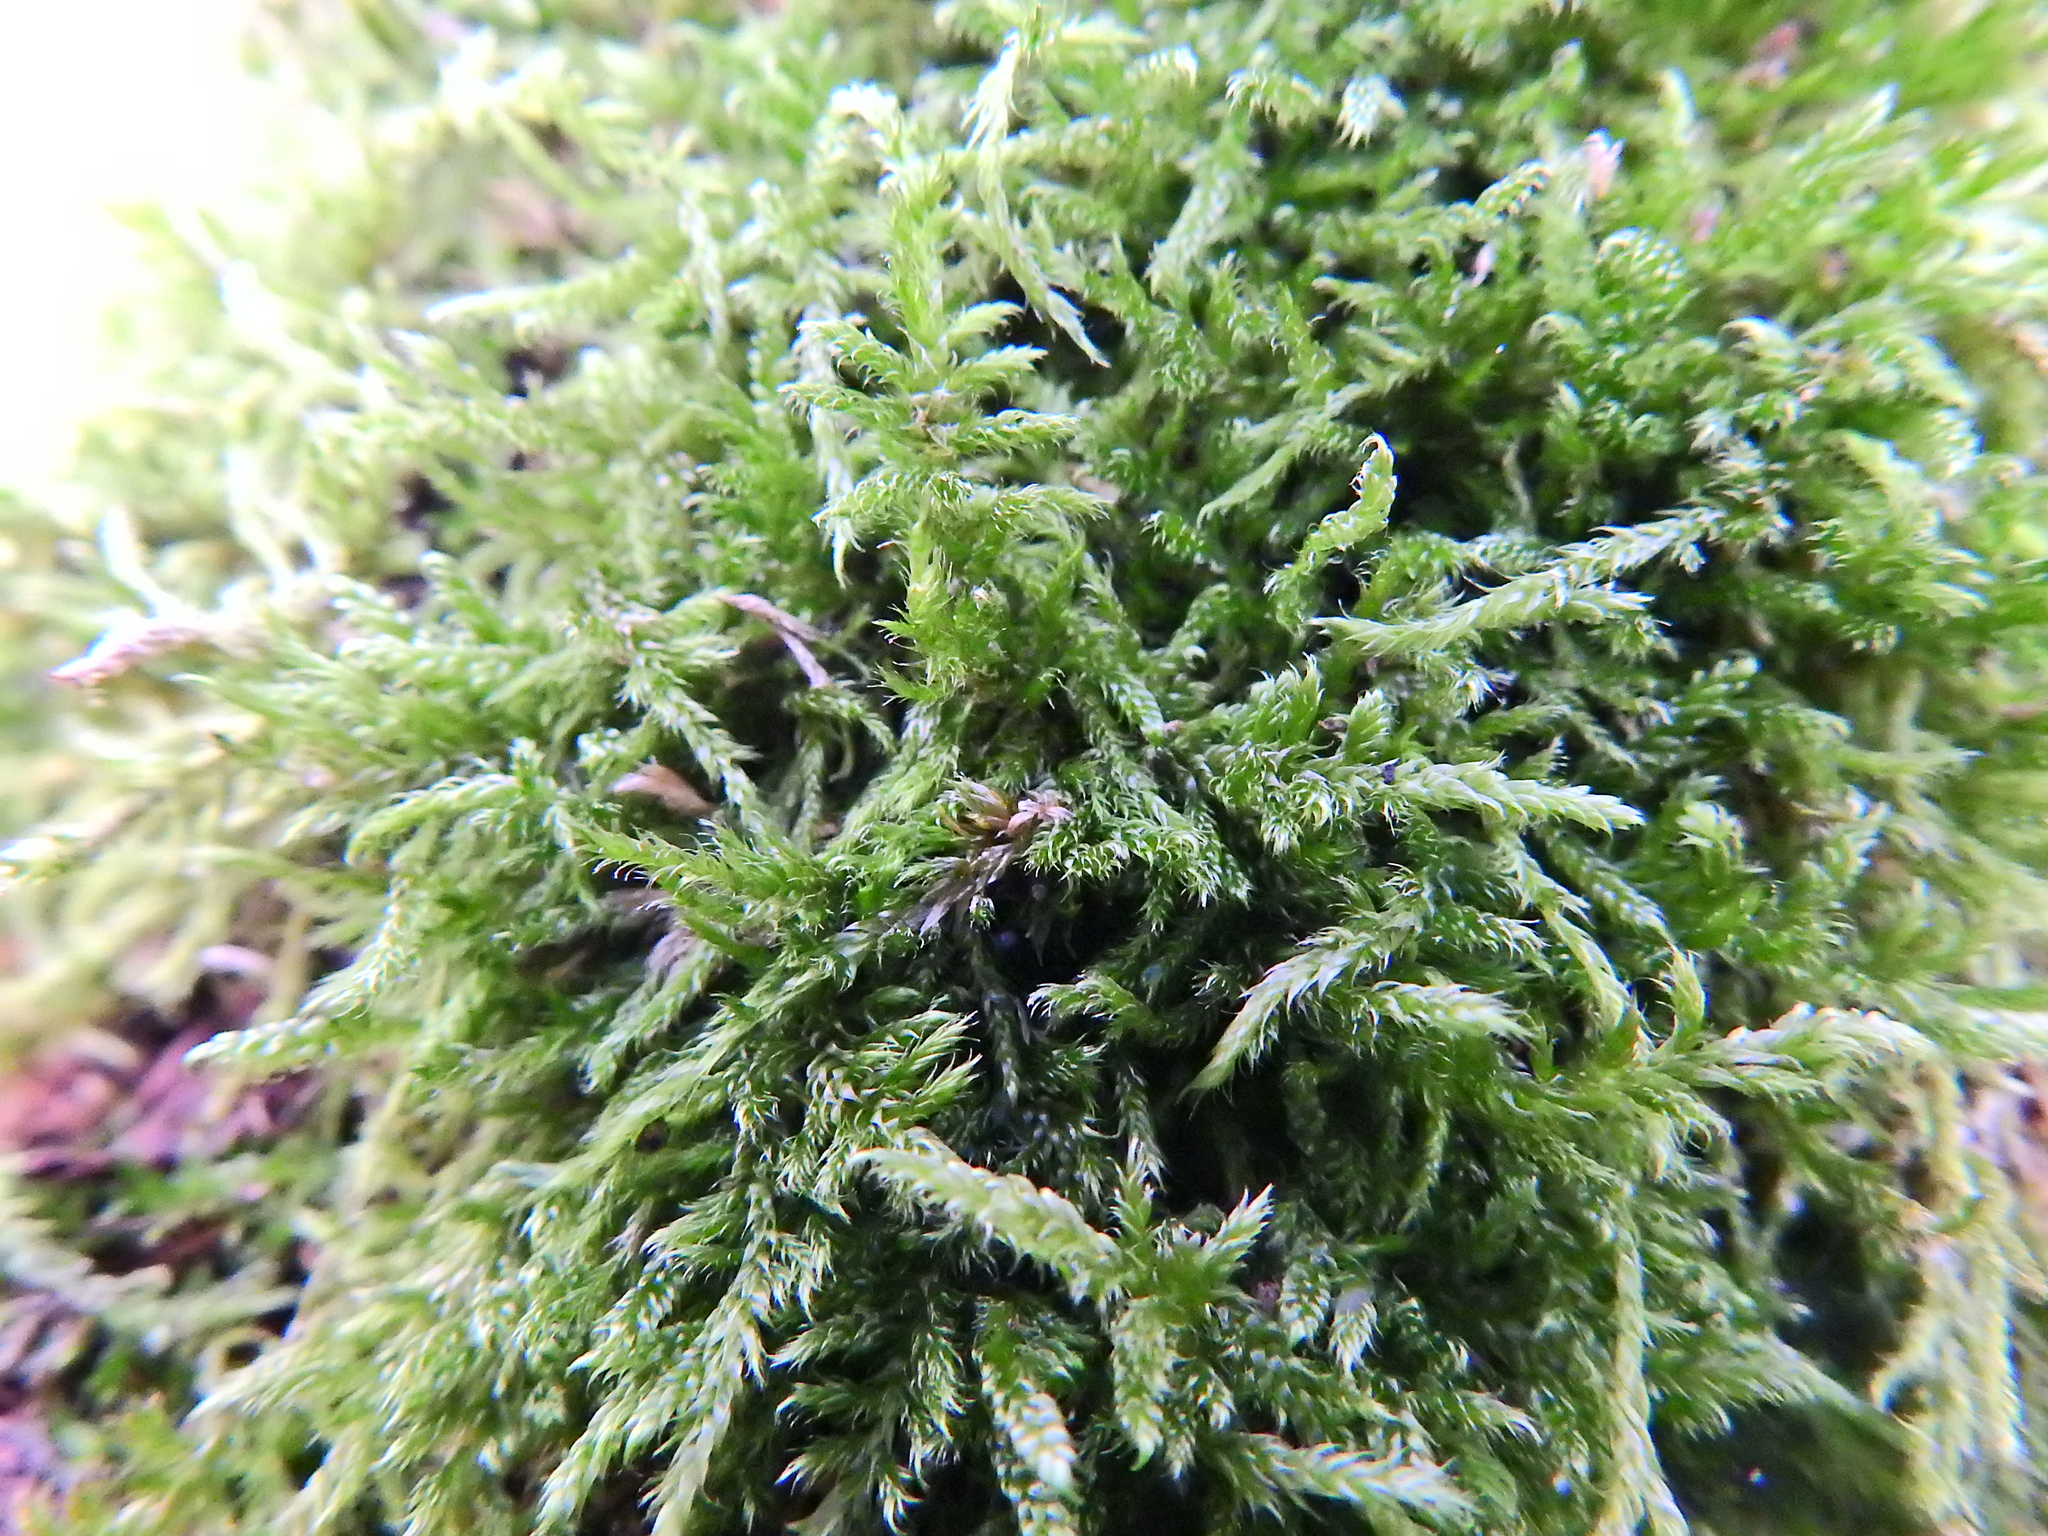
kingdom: Plantae
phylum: Bryophyta
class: Bryopsida
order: Hypnales
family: Hypnaceae
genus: Hypnum
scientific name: Hypnum cupressiforme
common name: Cypress-leaved plait-moss
